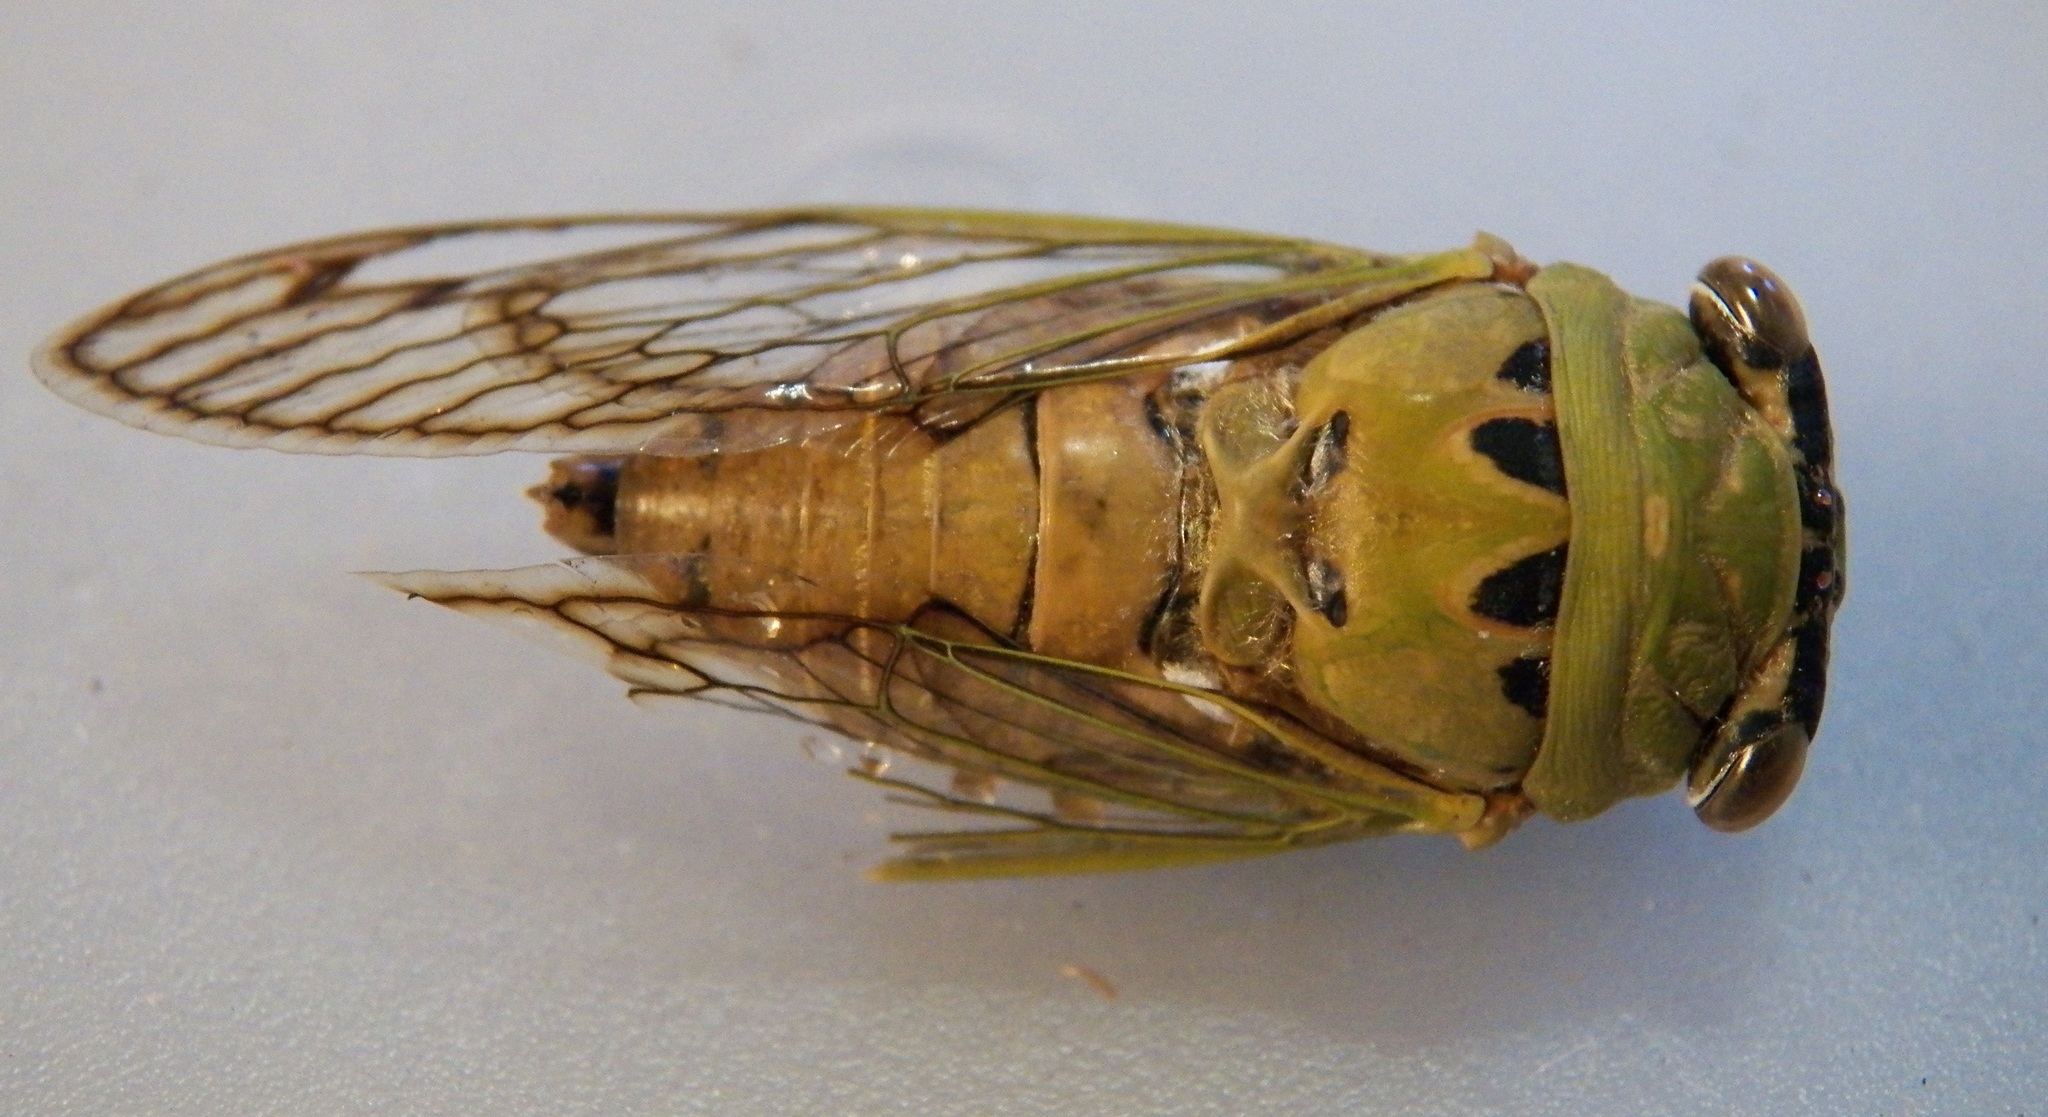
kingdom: Animalia
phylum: Arthropoda
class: Insecta
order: Hemiptera
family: Cicadidae
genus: Neotibicen
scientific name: Neotibicen superbus
